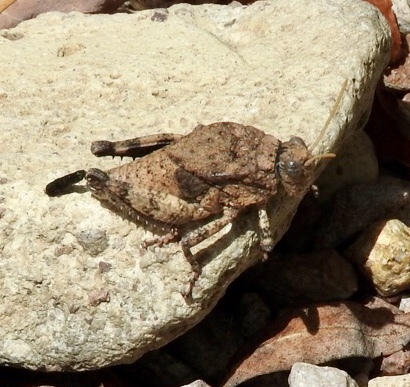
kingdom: Animalia
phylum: Arthropoda
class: Insecta
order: Orthoptera
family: Romaleidae
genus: Phrynotettix
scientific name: Phrynotettix tshivavensis
